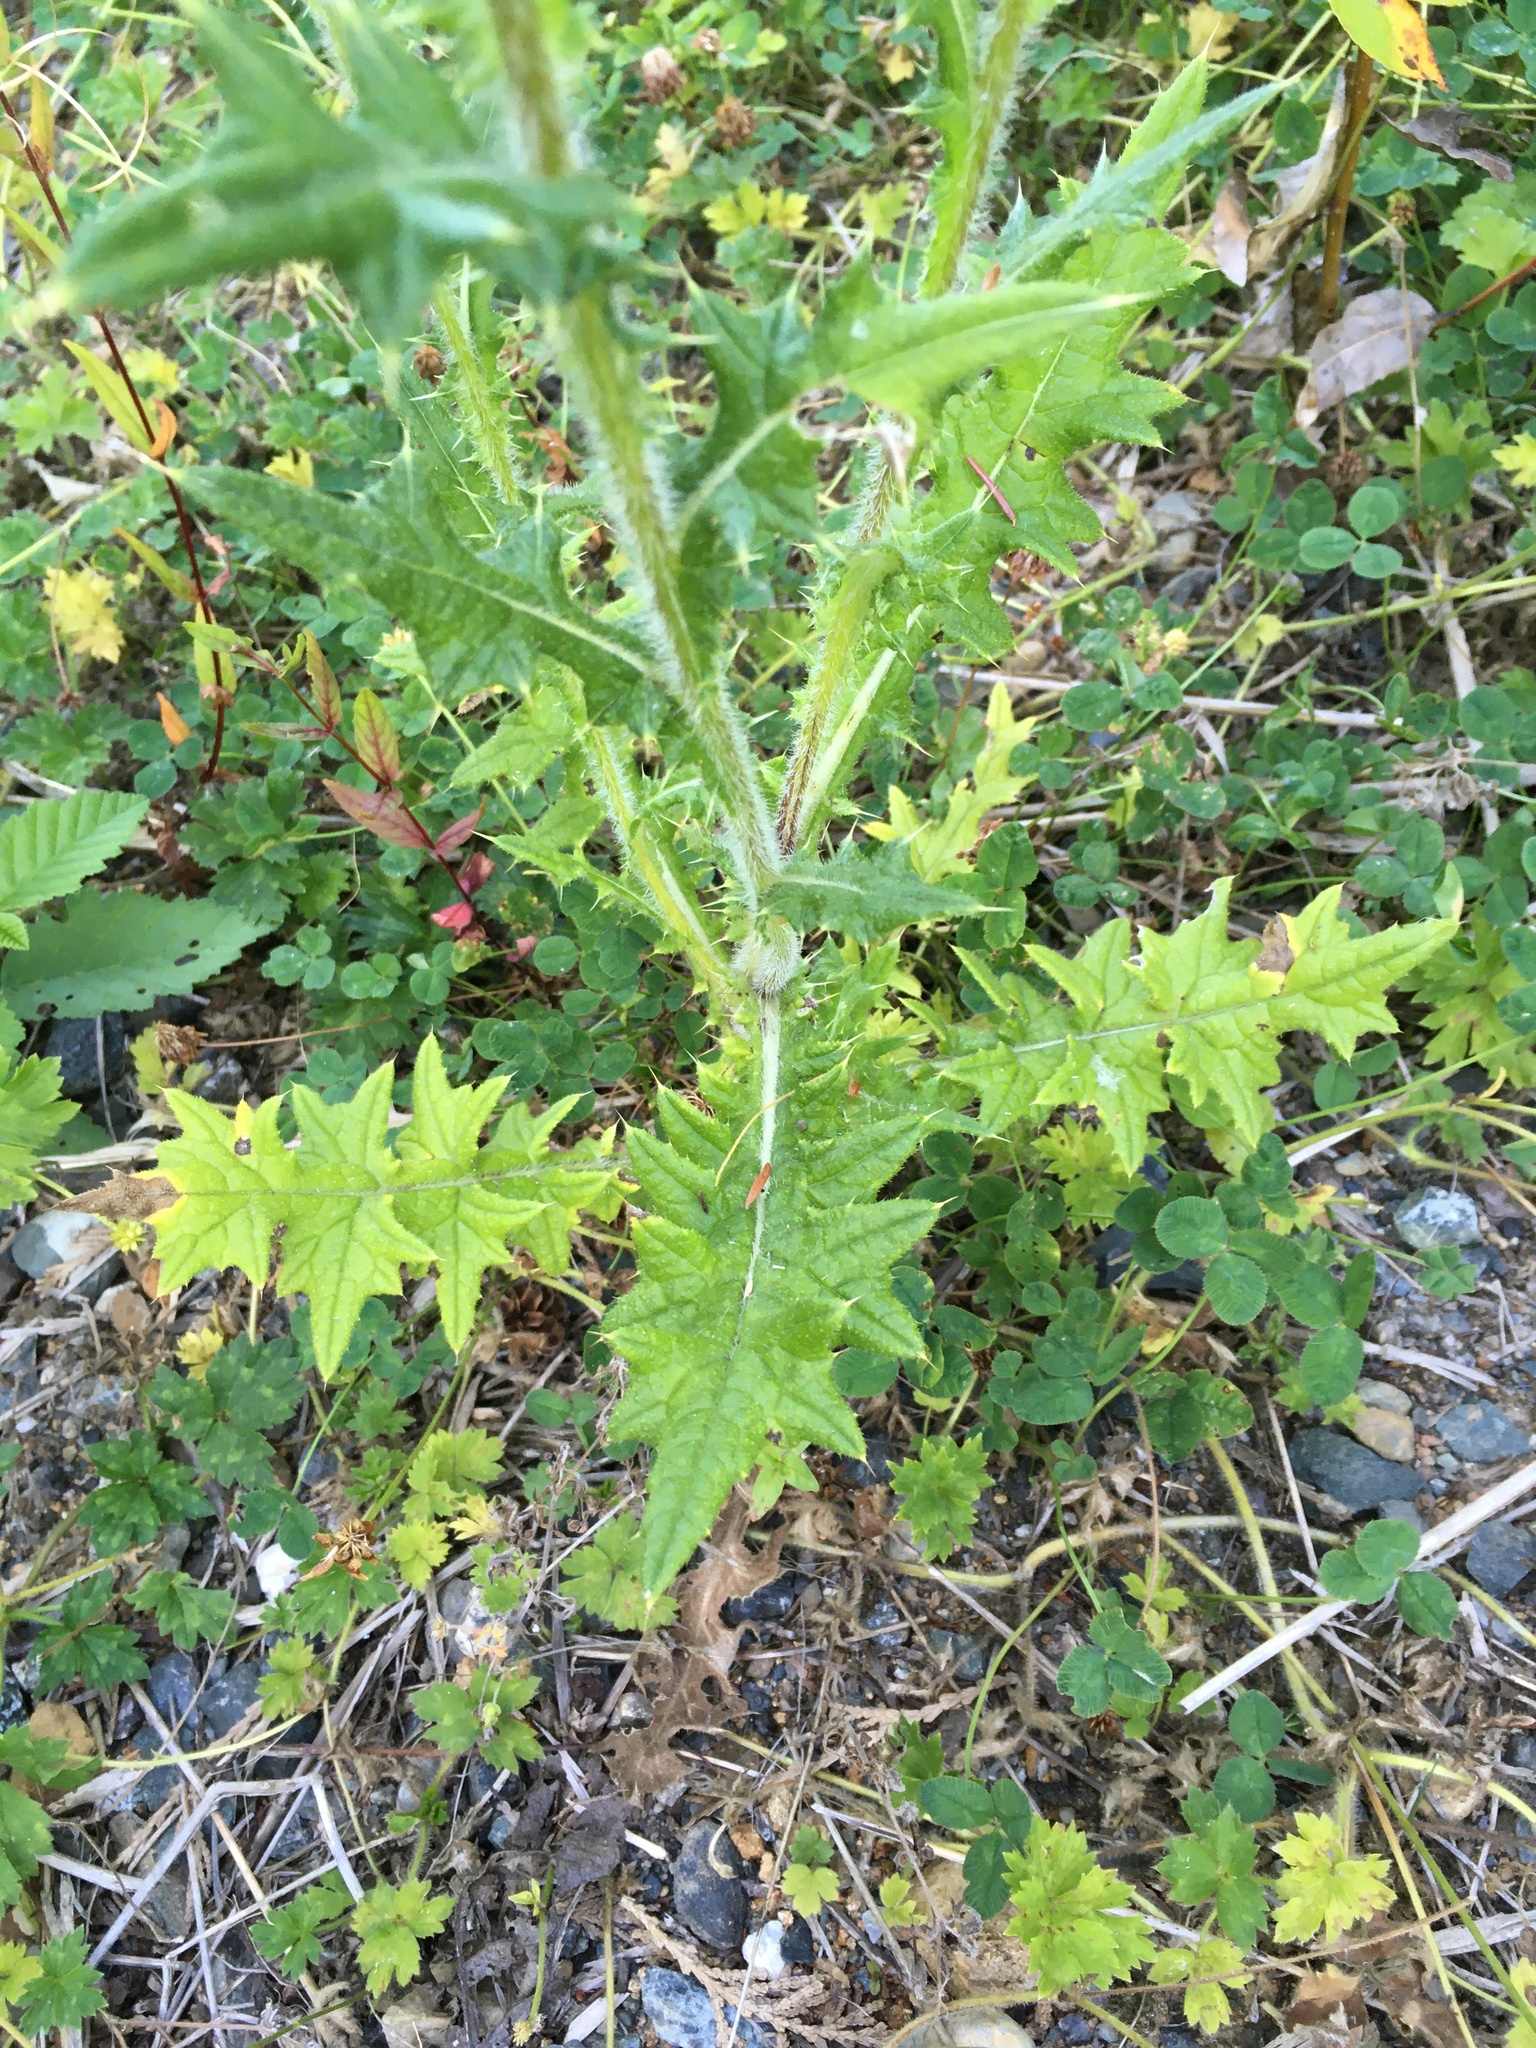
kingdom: Plantae
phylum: Tracheophyta
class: Magnoliopsida
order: Asterales
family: Asteraceae
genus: Cirsium
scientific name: Cirsium vulgare
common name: Bull thistle
